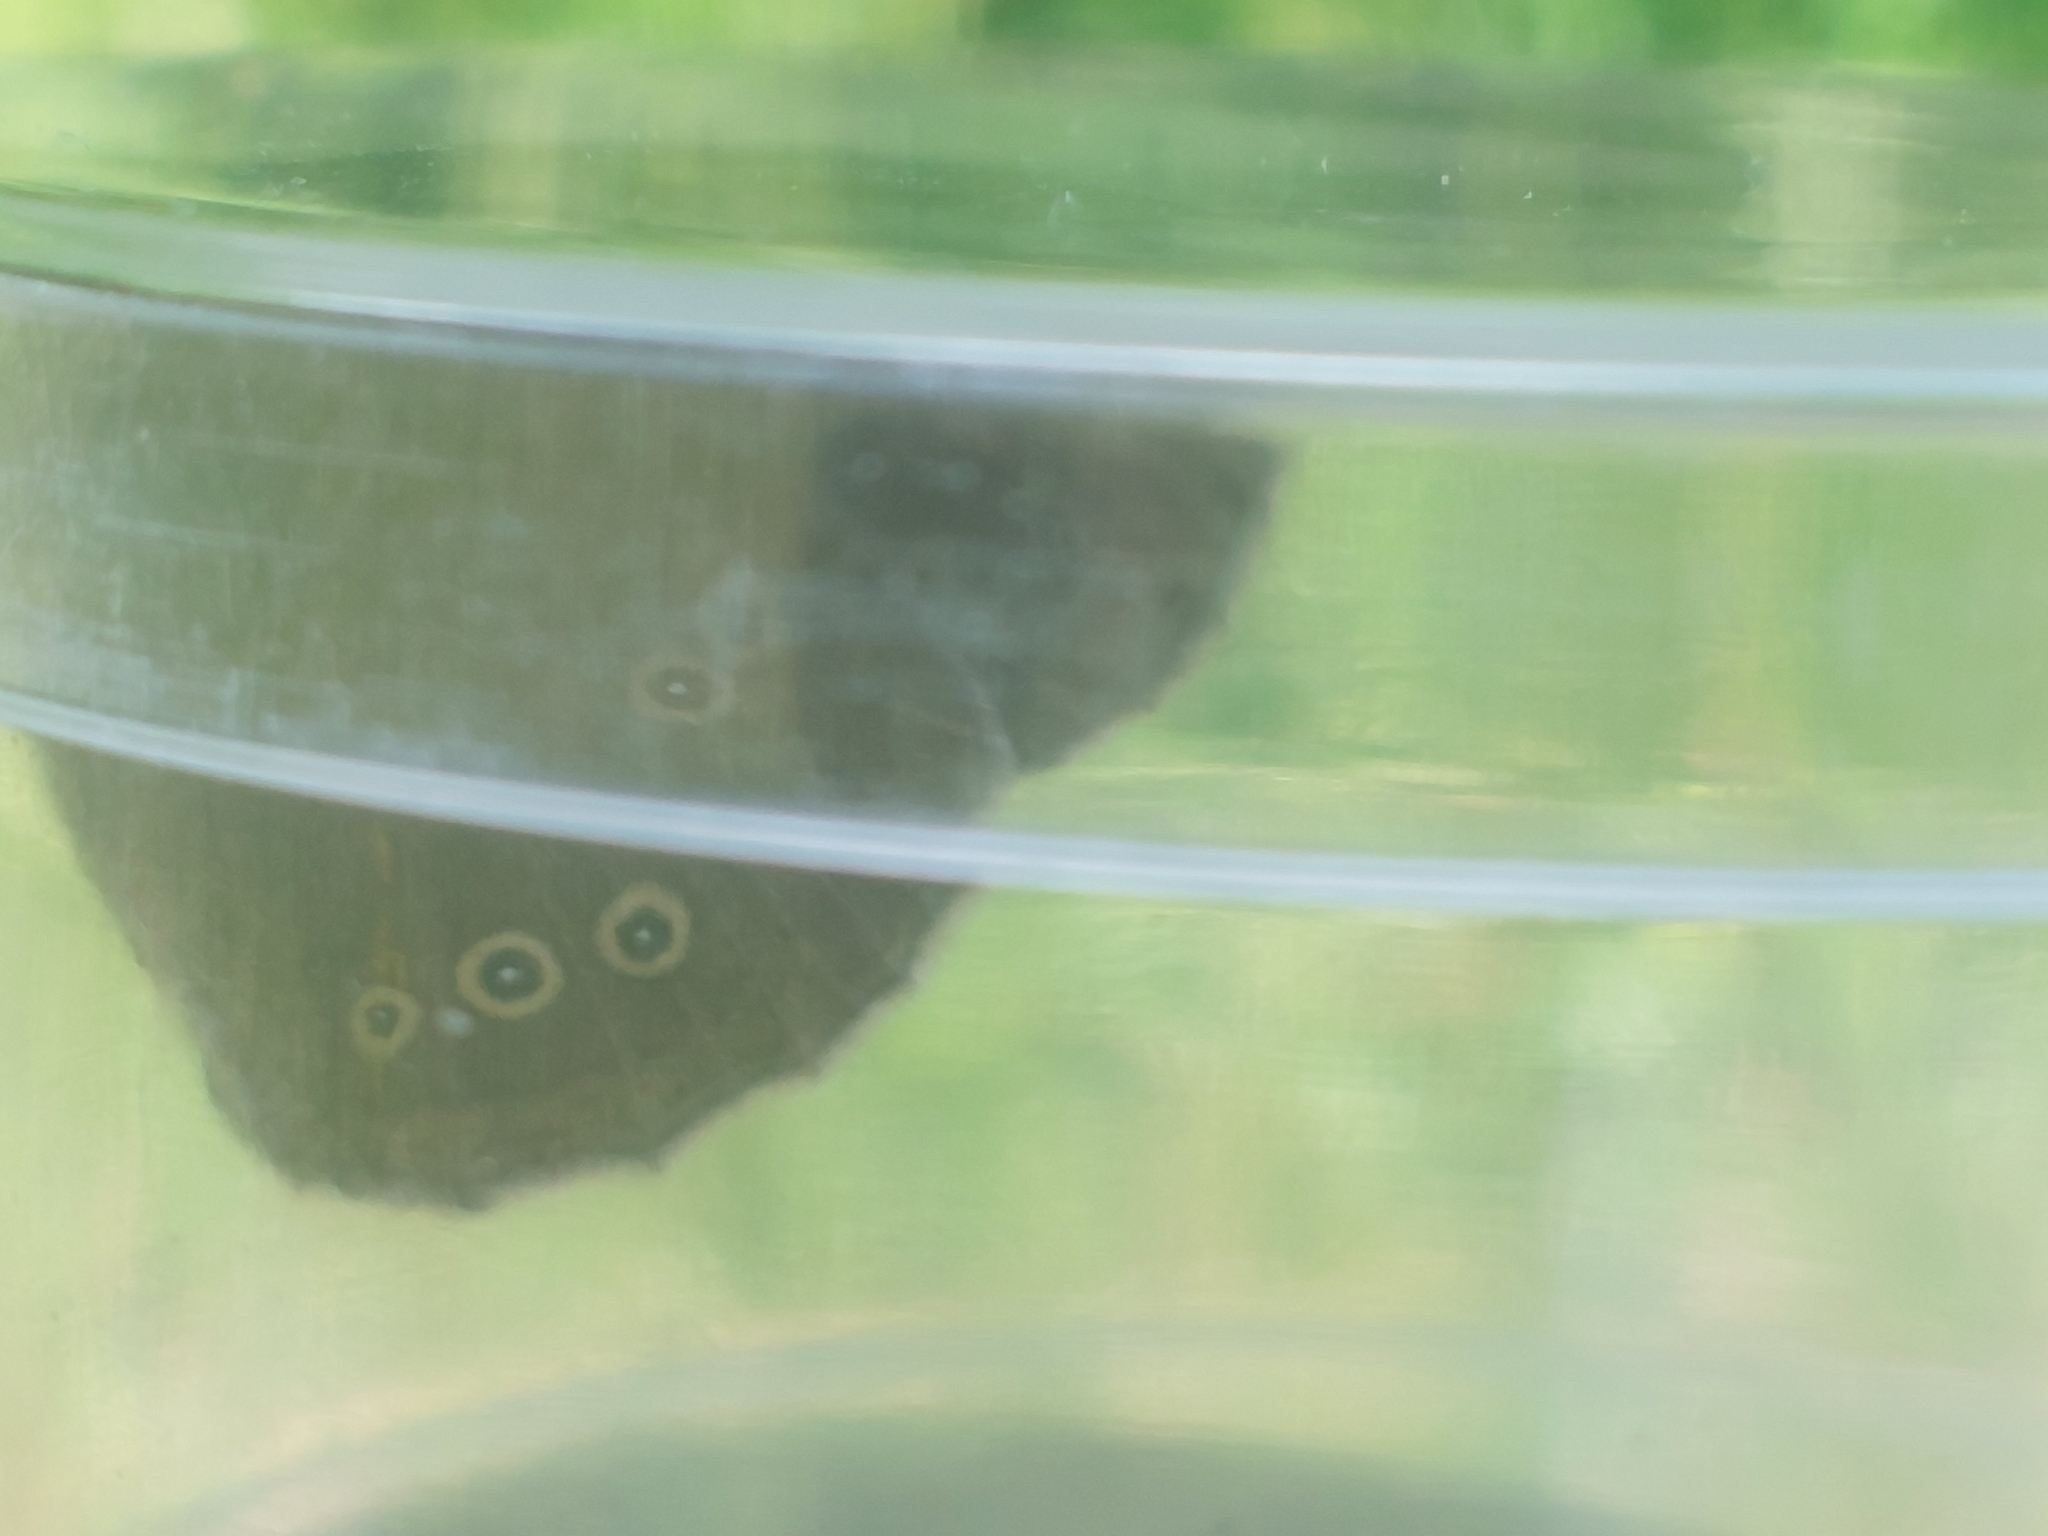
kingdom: Animalia
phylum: Arthropoda
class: Insecta
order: Lepidoptera
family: Nymphalidae
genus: Aphantopus
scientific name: Aphantopus hyperantus
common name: Ringlet
